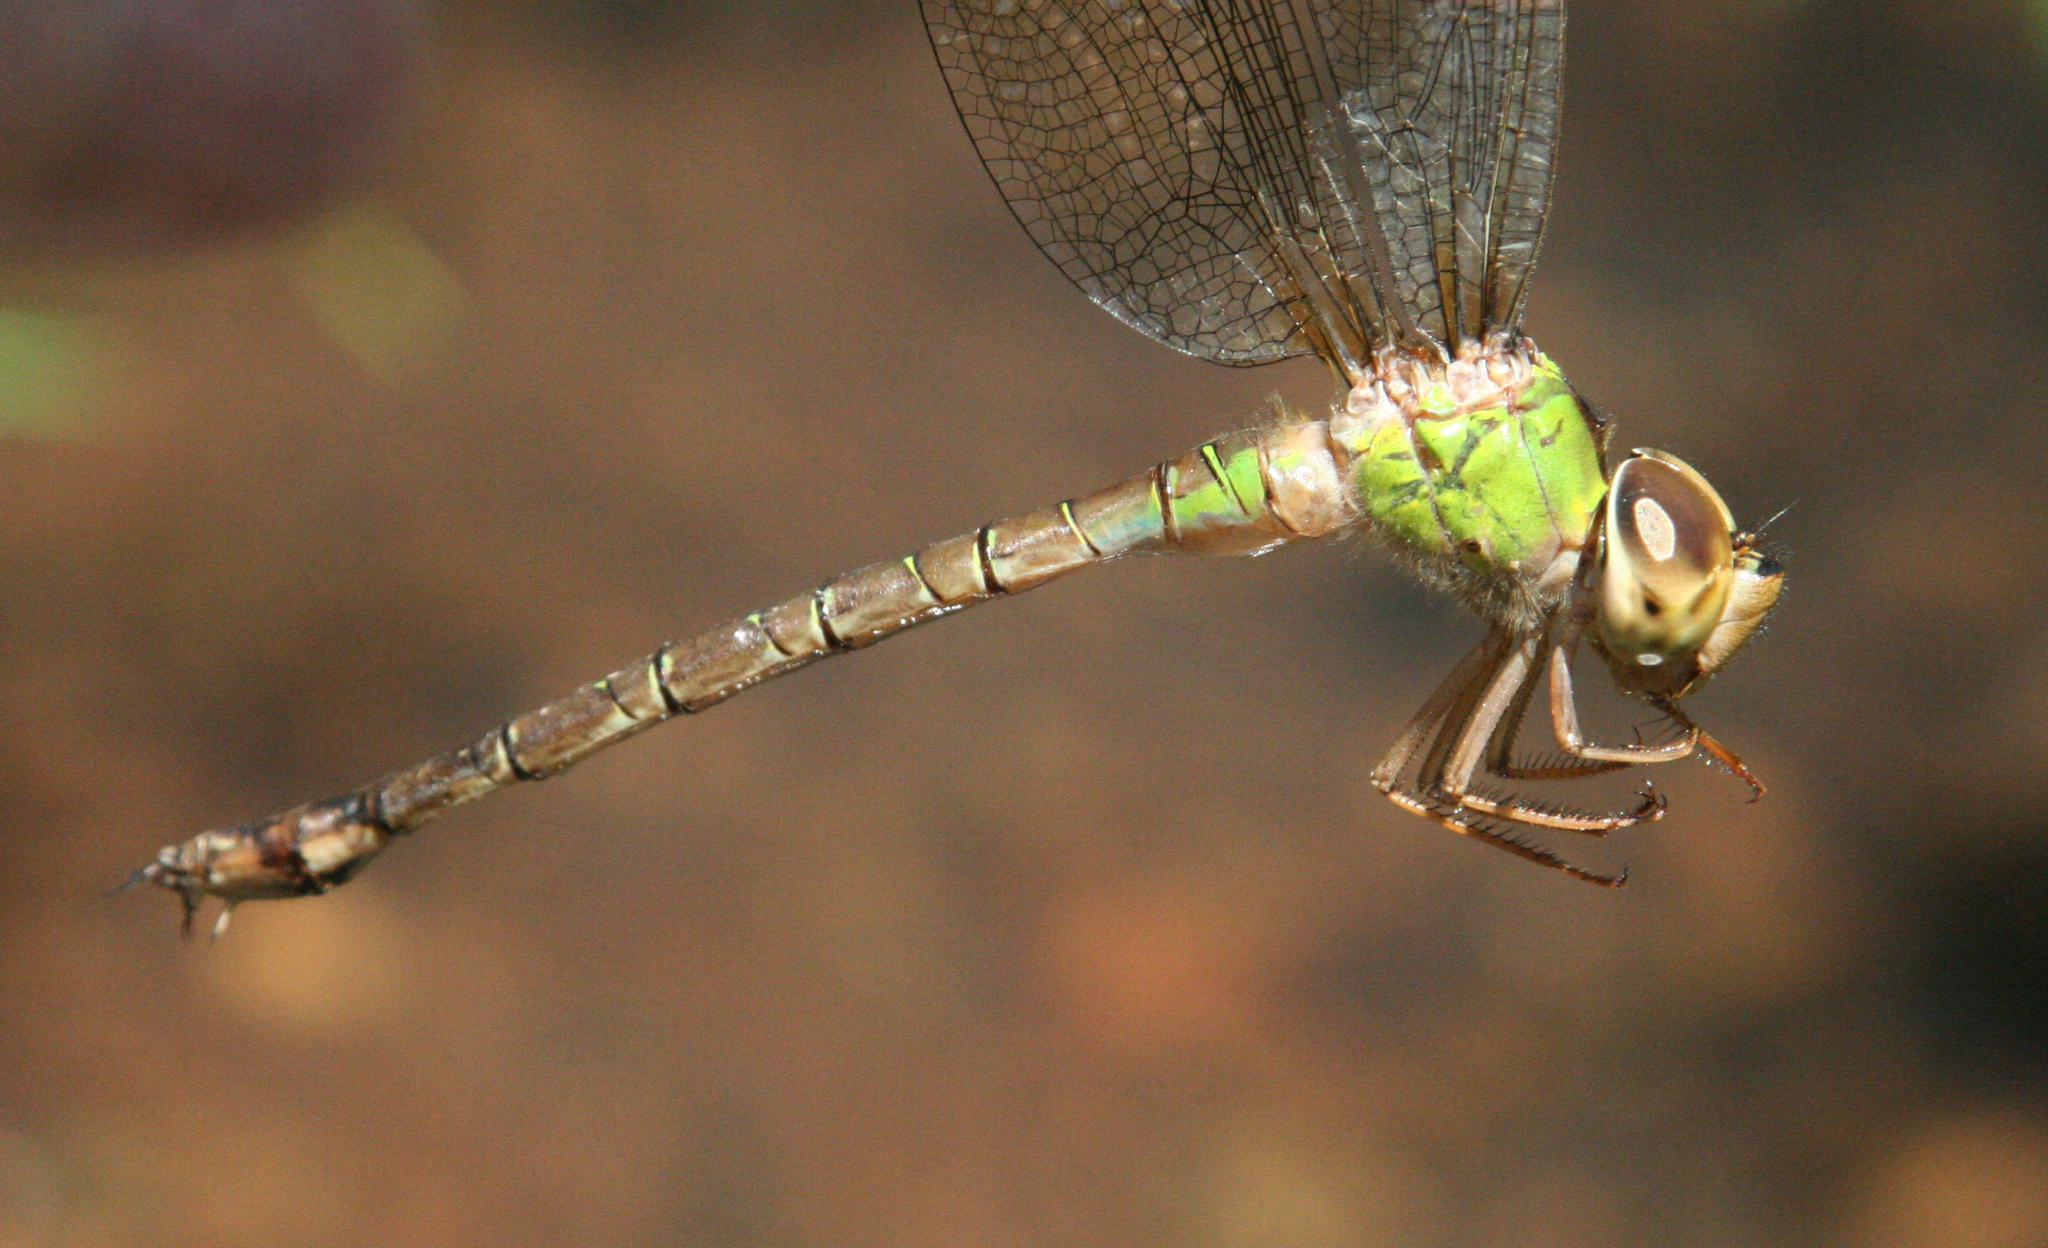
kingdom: Animalia
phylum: Arthropoda
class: Insecta
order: Odonata
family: Aeshnidae
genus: Gynacantha
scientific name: Gynacantha saltatrix
